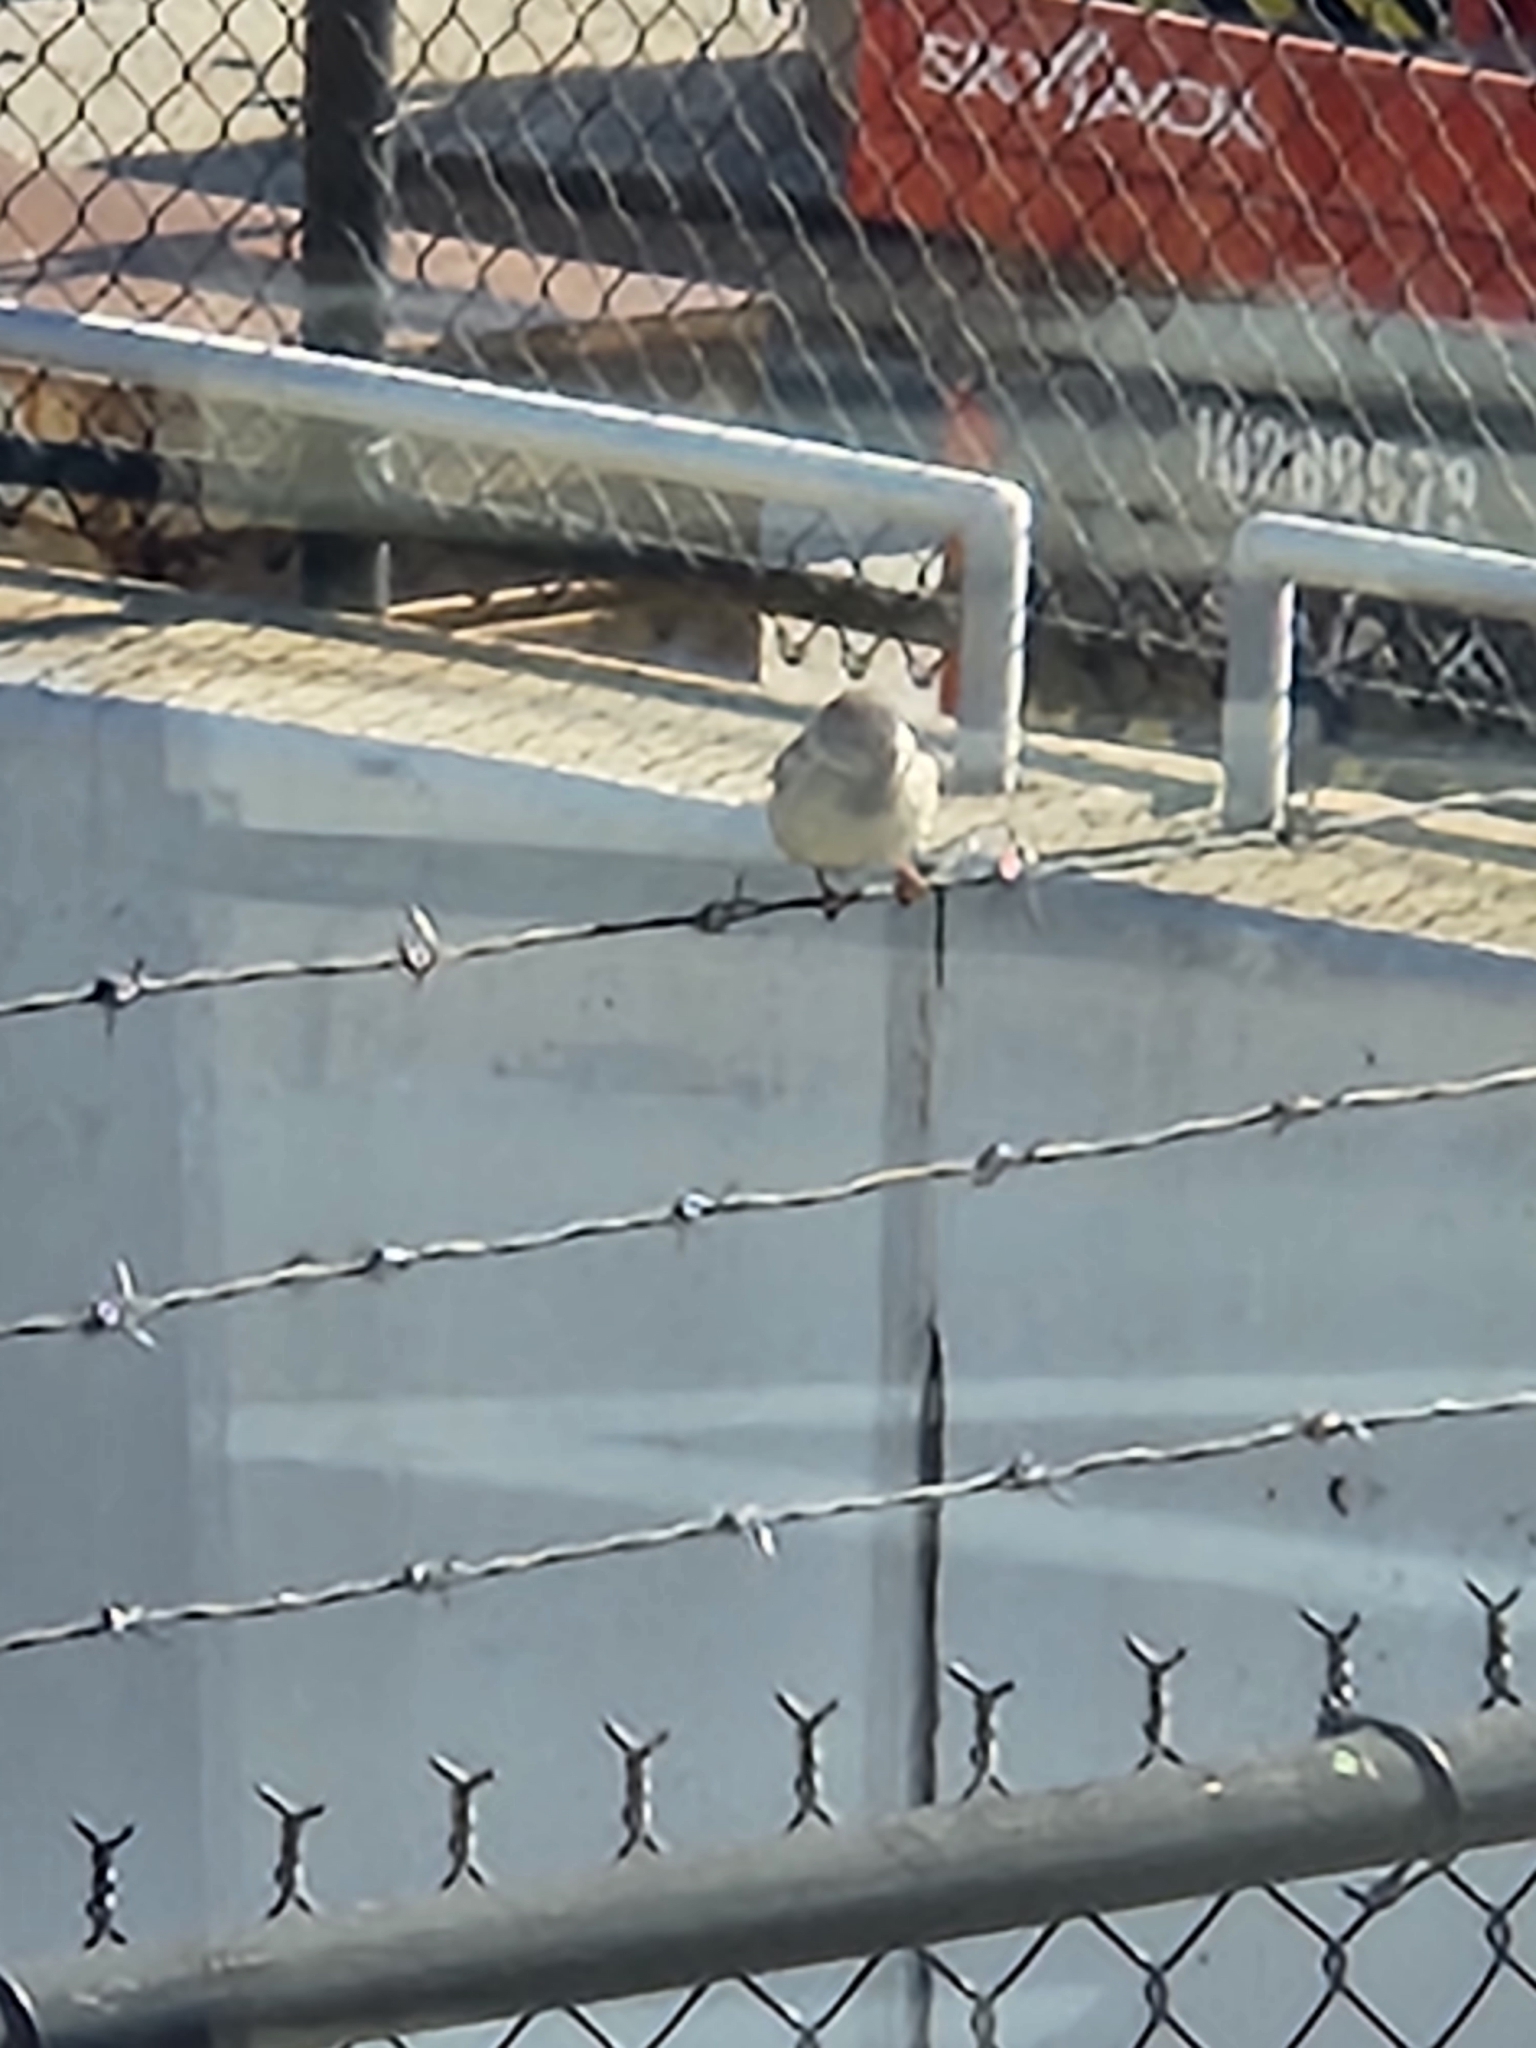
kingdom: Animalia
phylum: Chordata
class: Aves
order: Passeriformes
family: Passeridae
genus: Passer
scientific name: Passer domesticus
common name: House sparrow
